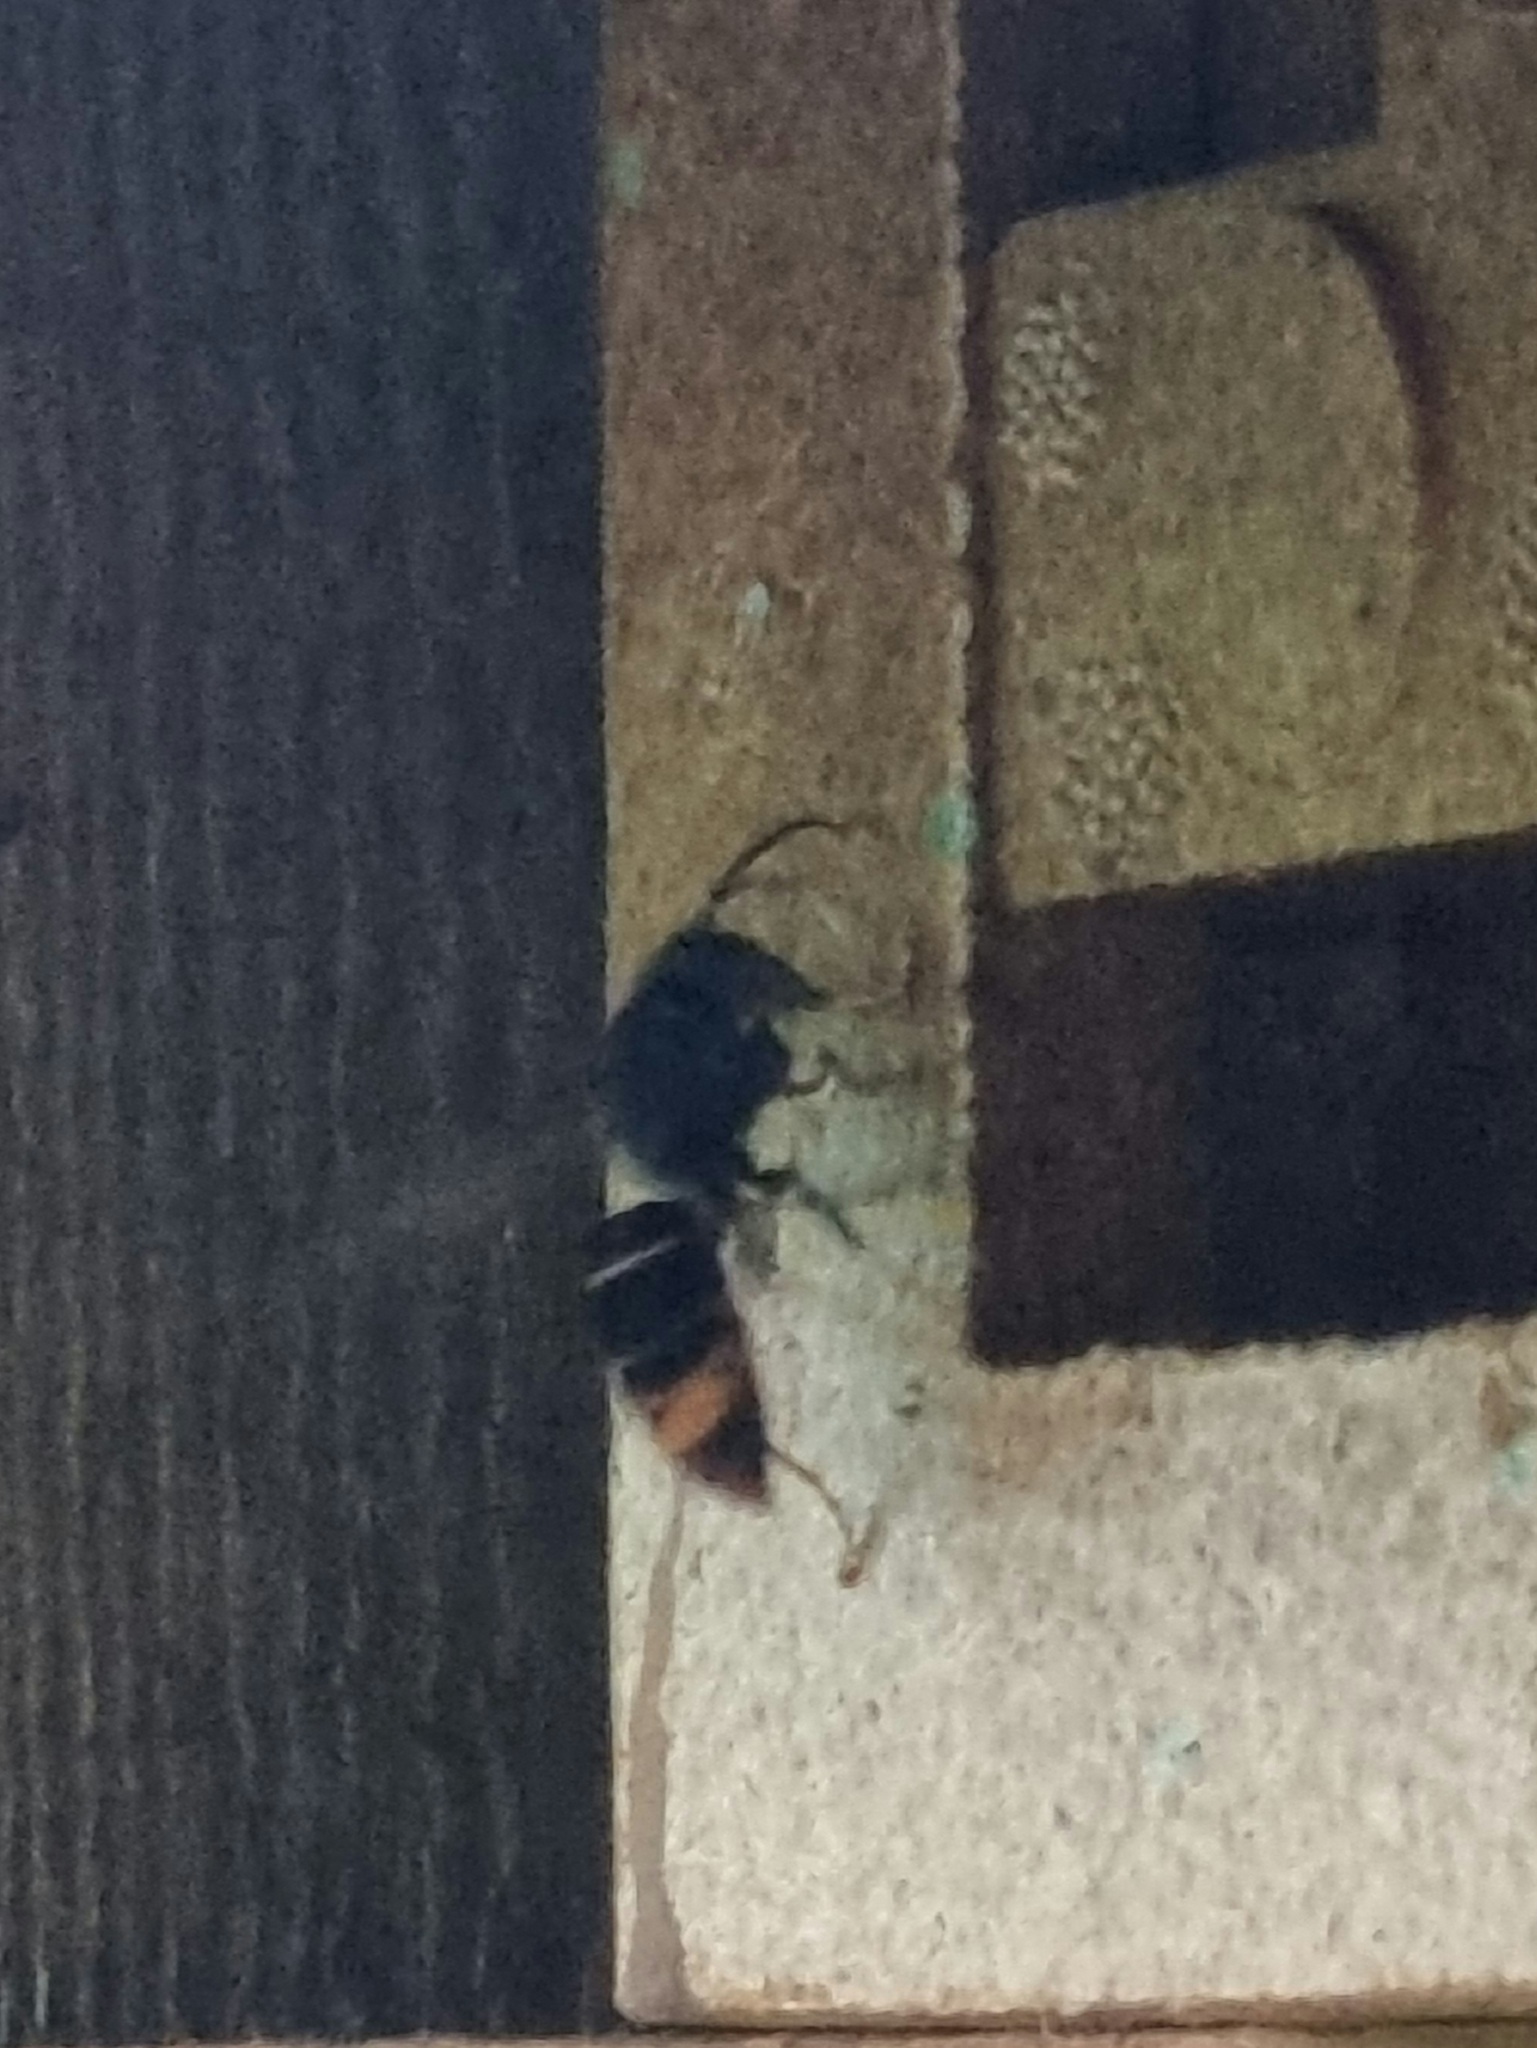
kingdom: Animalia
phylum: Arthropoda
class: Insecta
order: Hymenoptera
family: Vespidae
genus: Vespa
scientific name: Vespa velutina
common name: Asian hornet
